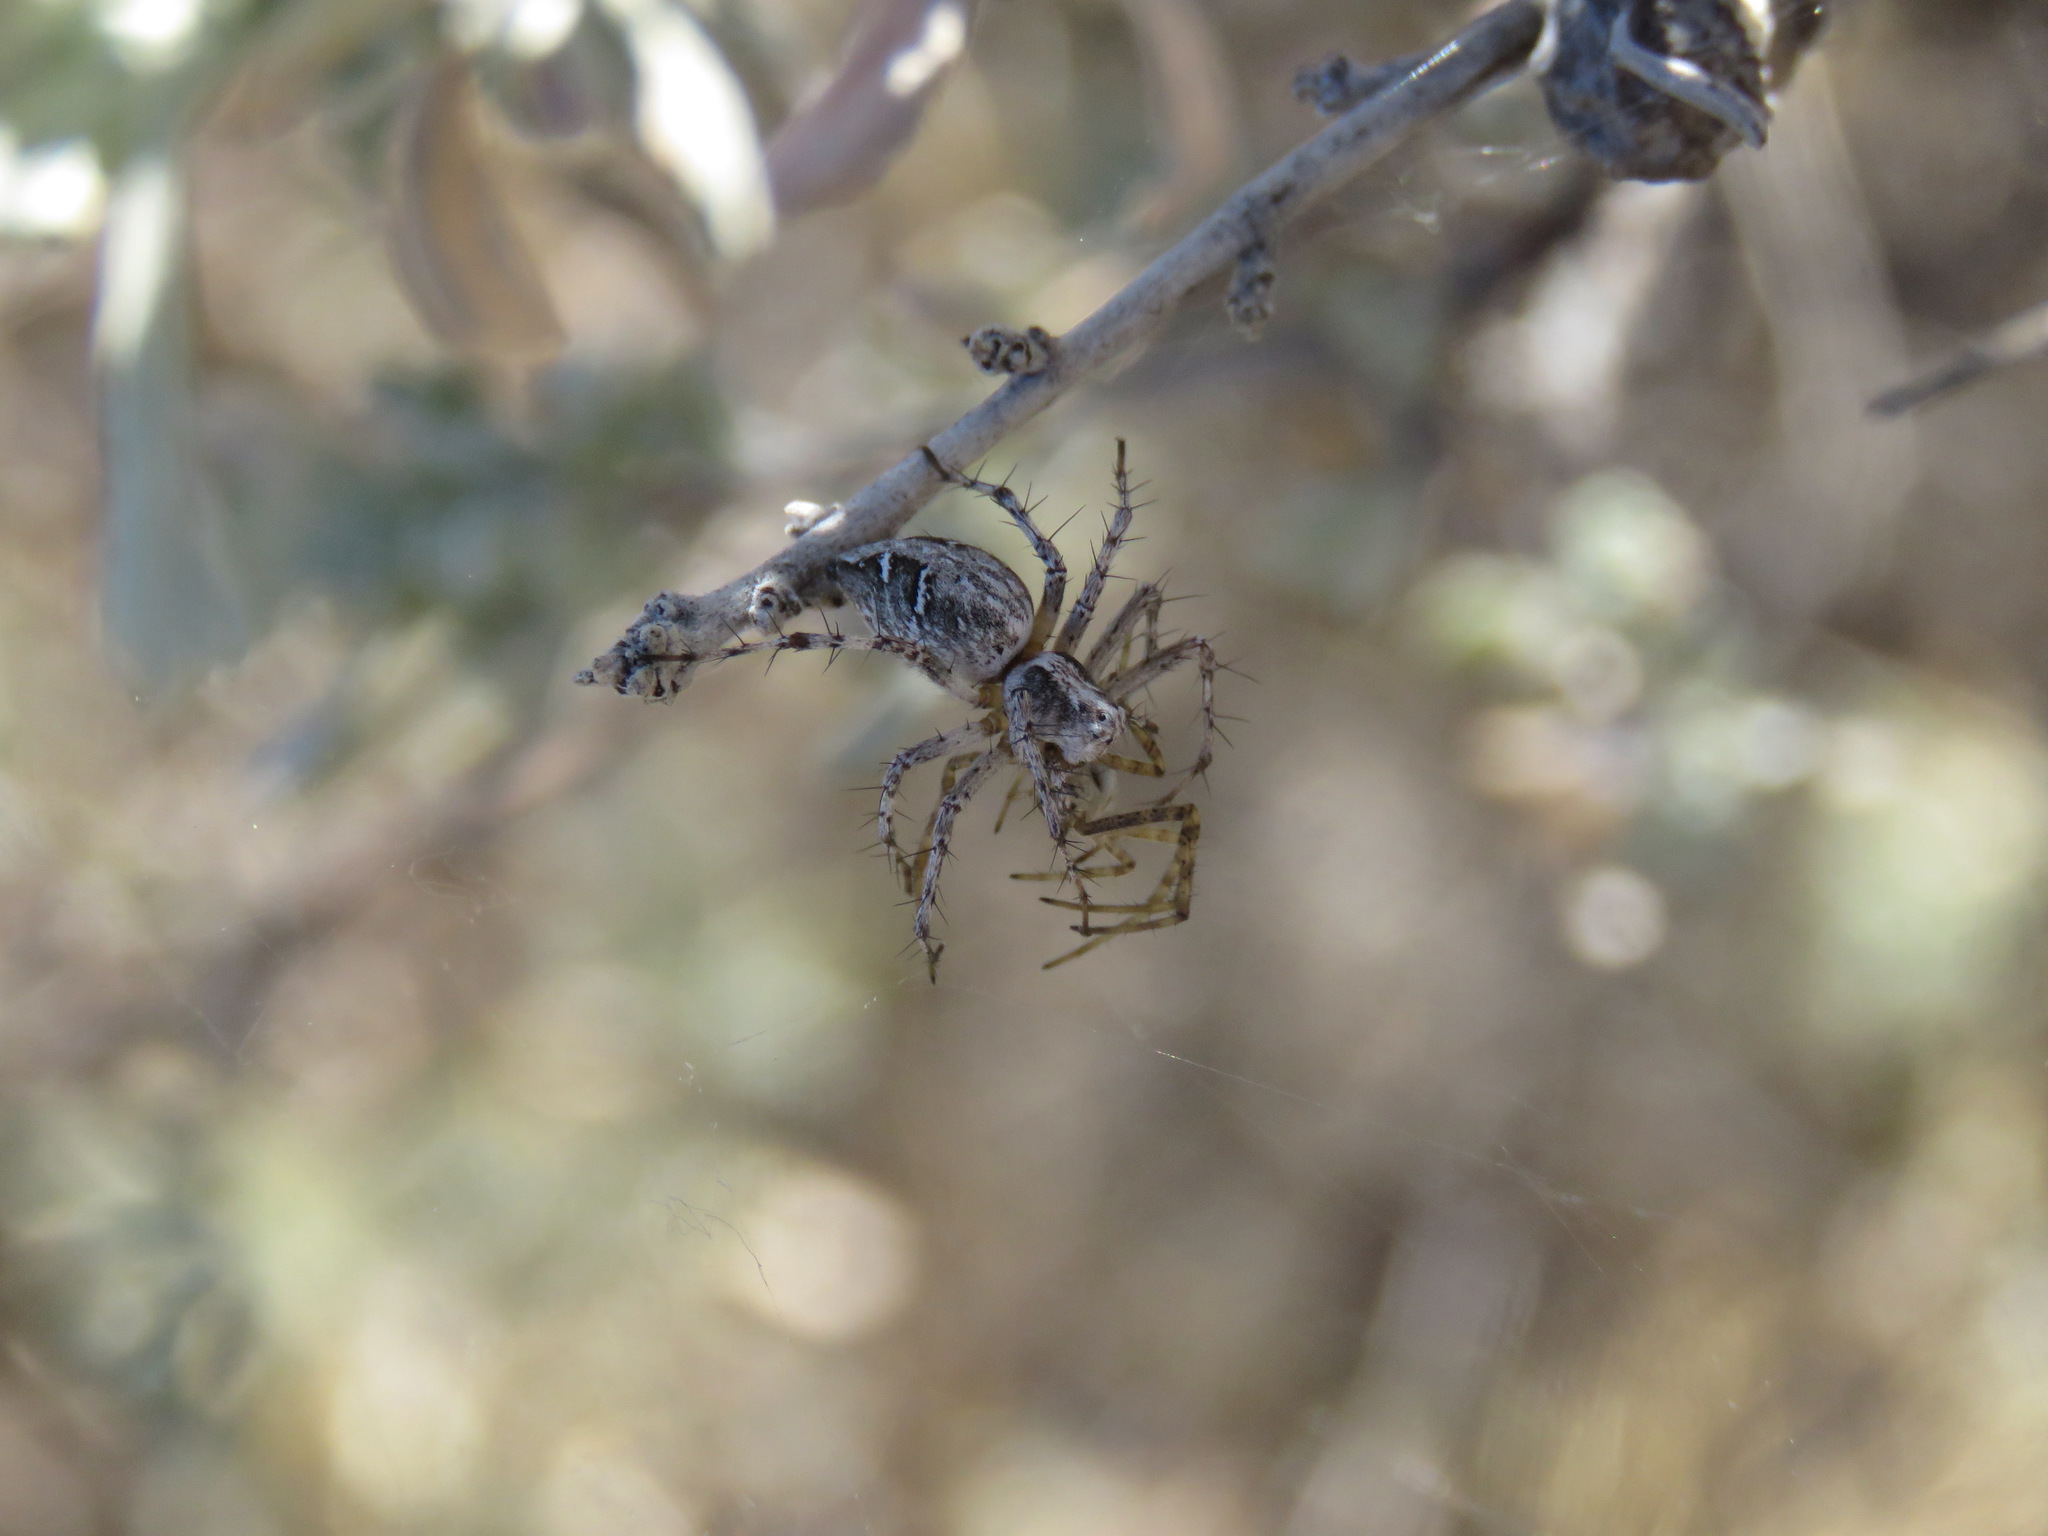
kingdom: Animalia
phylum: Arthropoda
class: Arachnida
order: Araneae
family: Oxyopidae
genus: Oxyopes
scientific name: Oxyopes scalaris
